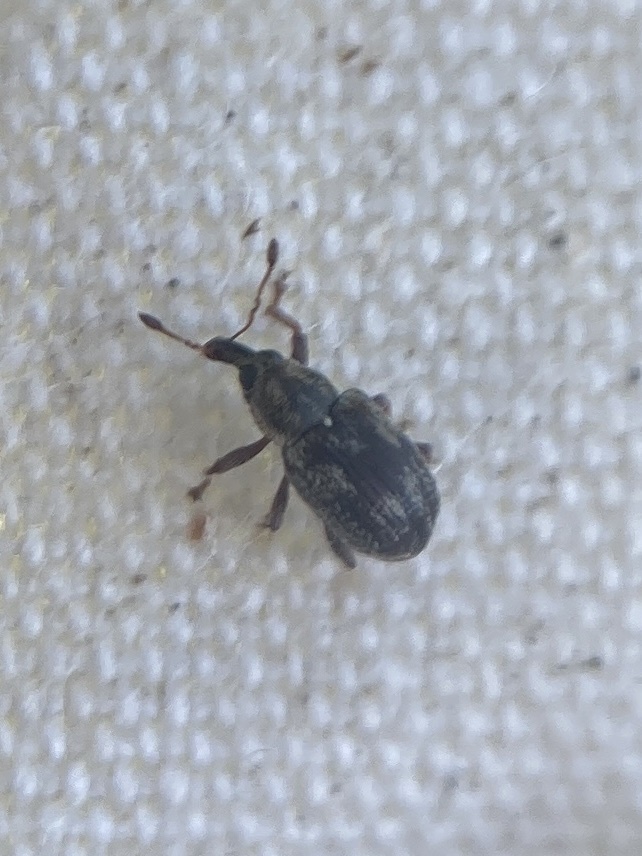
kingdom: Animalia
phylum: Arthropoda
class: Insecta
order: Coleoptera
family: Curculionidae
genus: Neomycta
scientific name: Neomycta rubida
